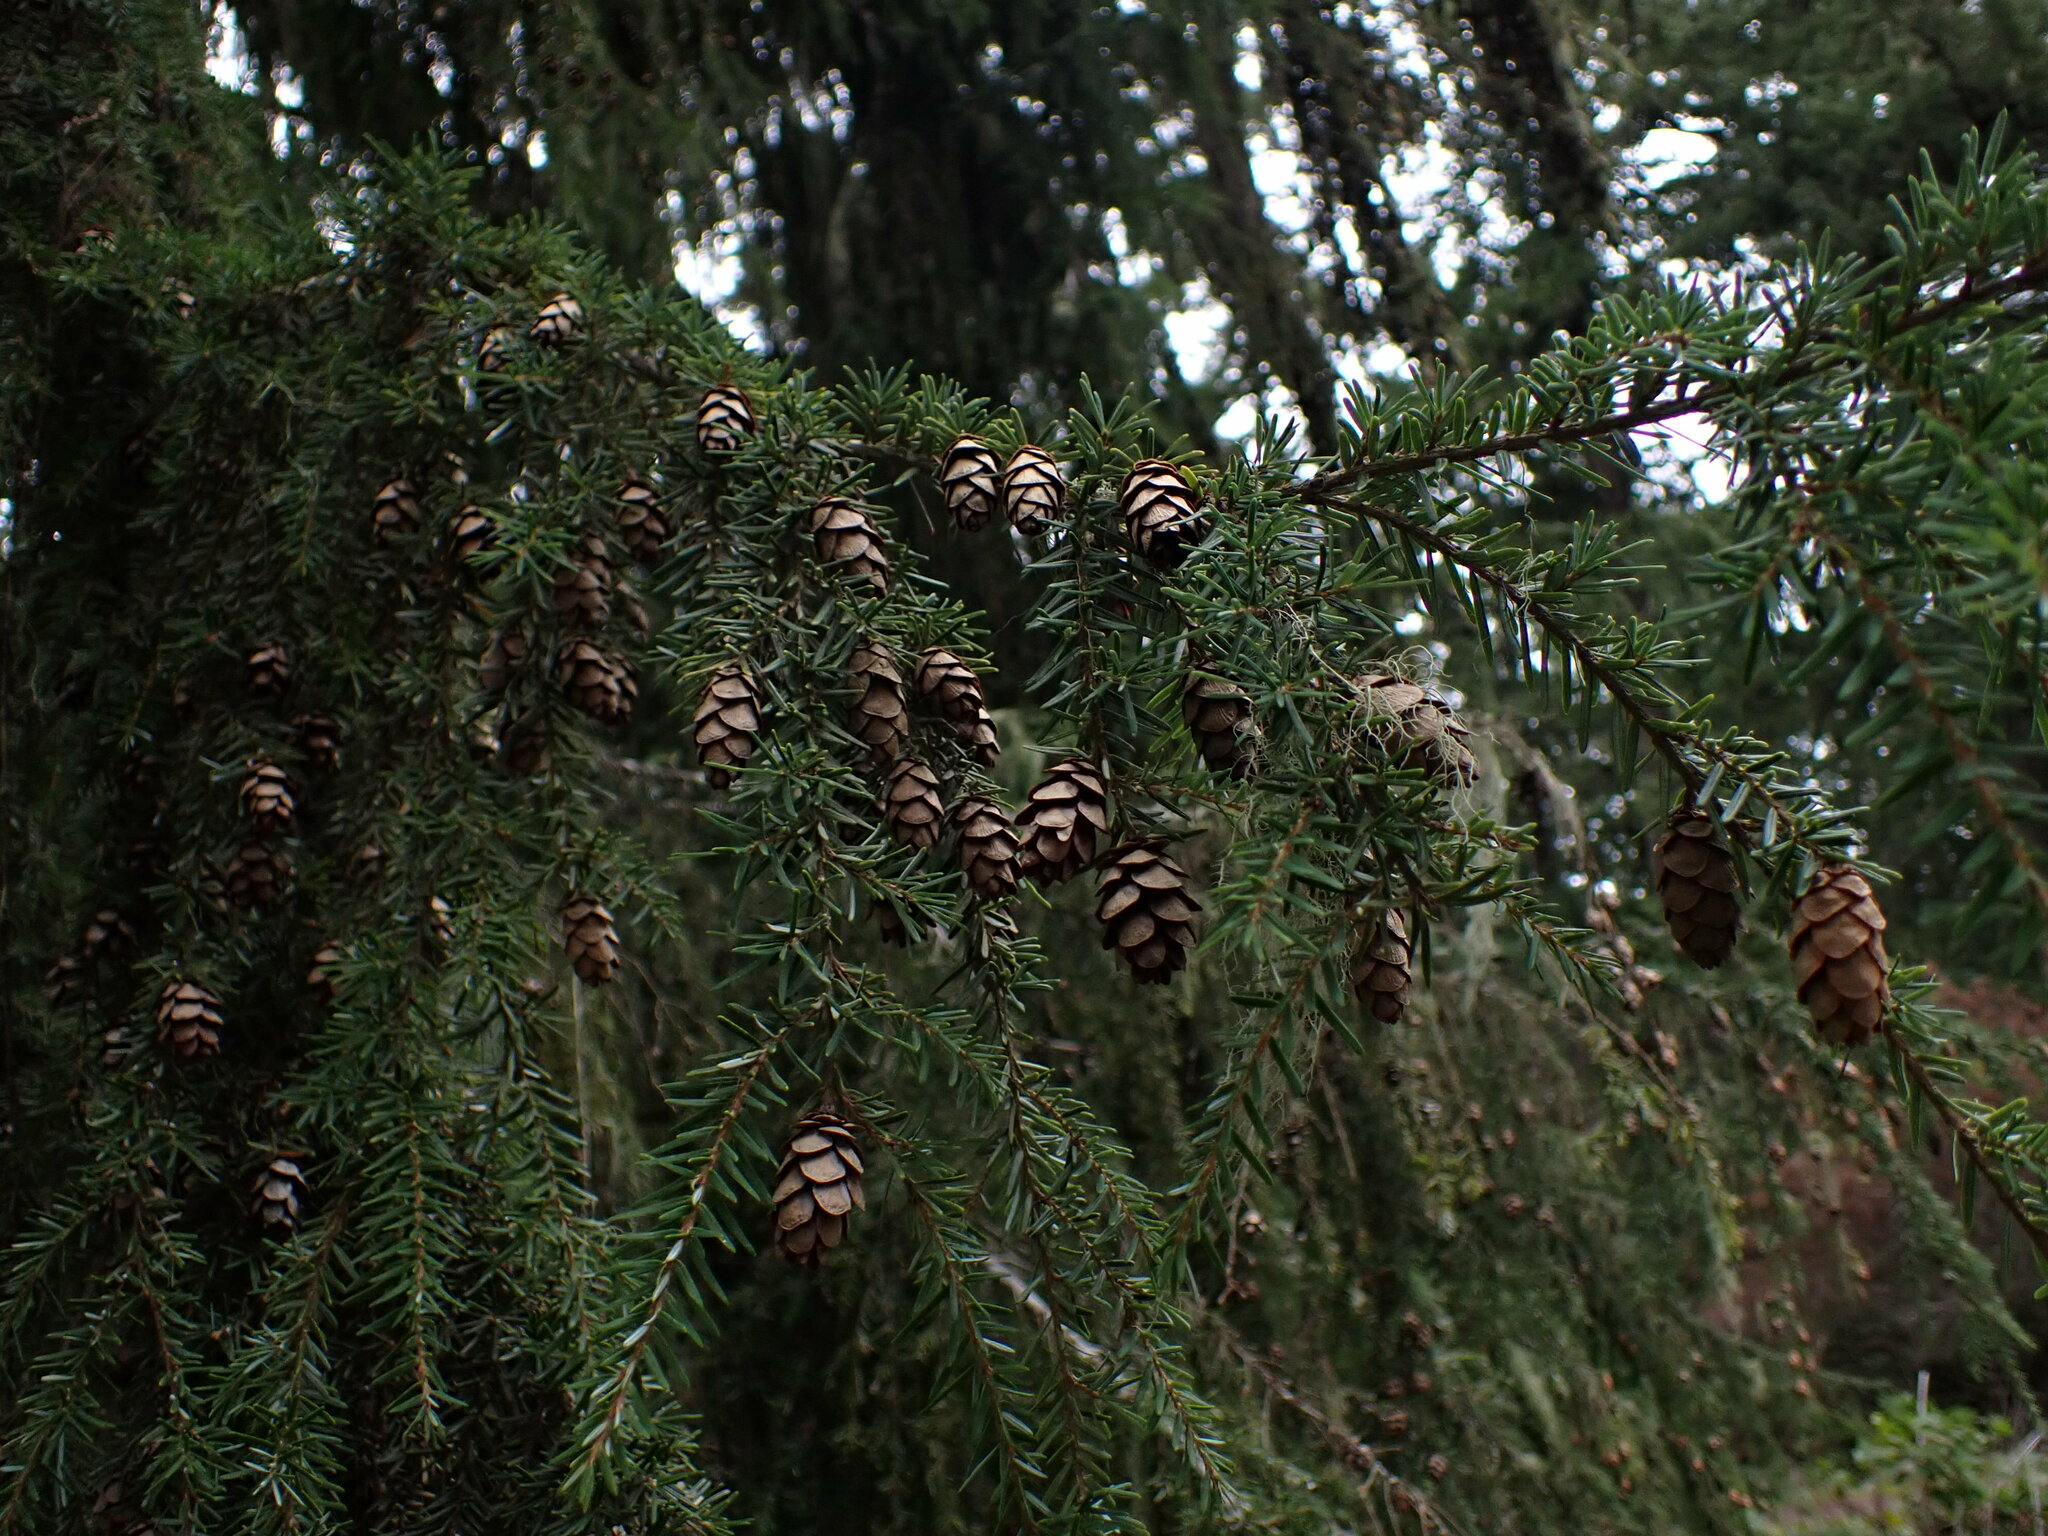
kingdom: Plantae
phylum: Tracheophyta
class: Pinopsida
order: Pinales
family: Pinaceae
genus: Tsuga
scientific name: Tsuga heterophylla
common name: Western hemlock
